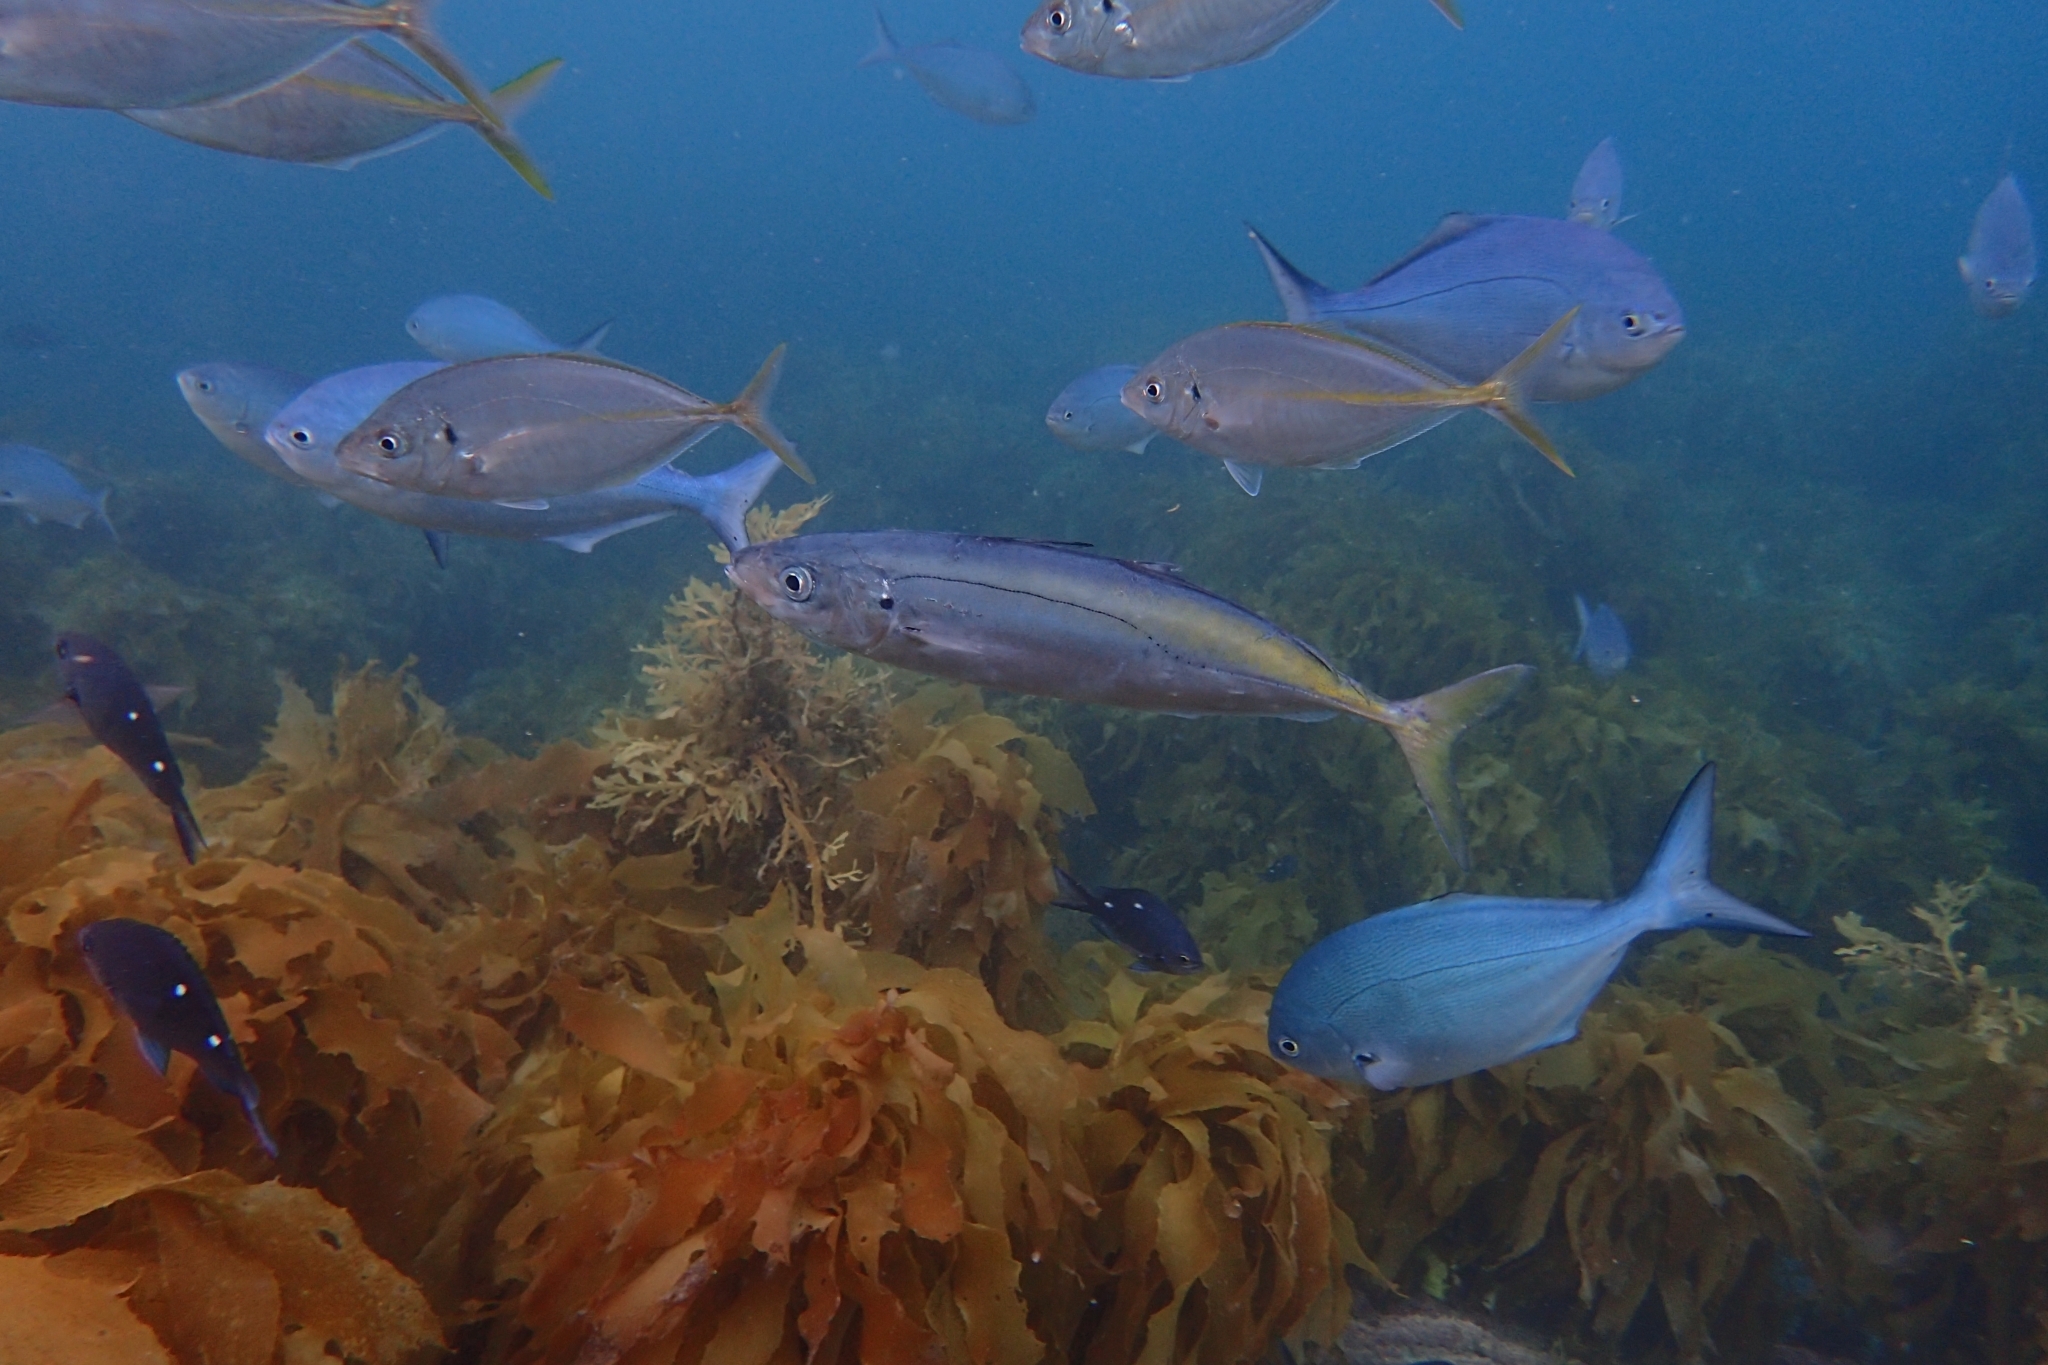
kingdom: Animalia
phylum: Chordata
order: Perciformes
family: Carangidae
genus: Decapterus
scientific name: Decapterus koheru
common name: Koheru
